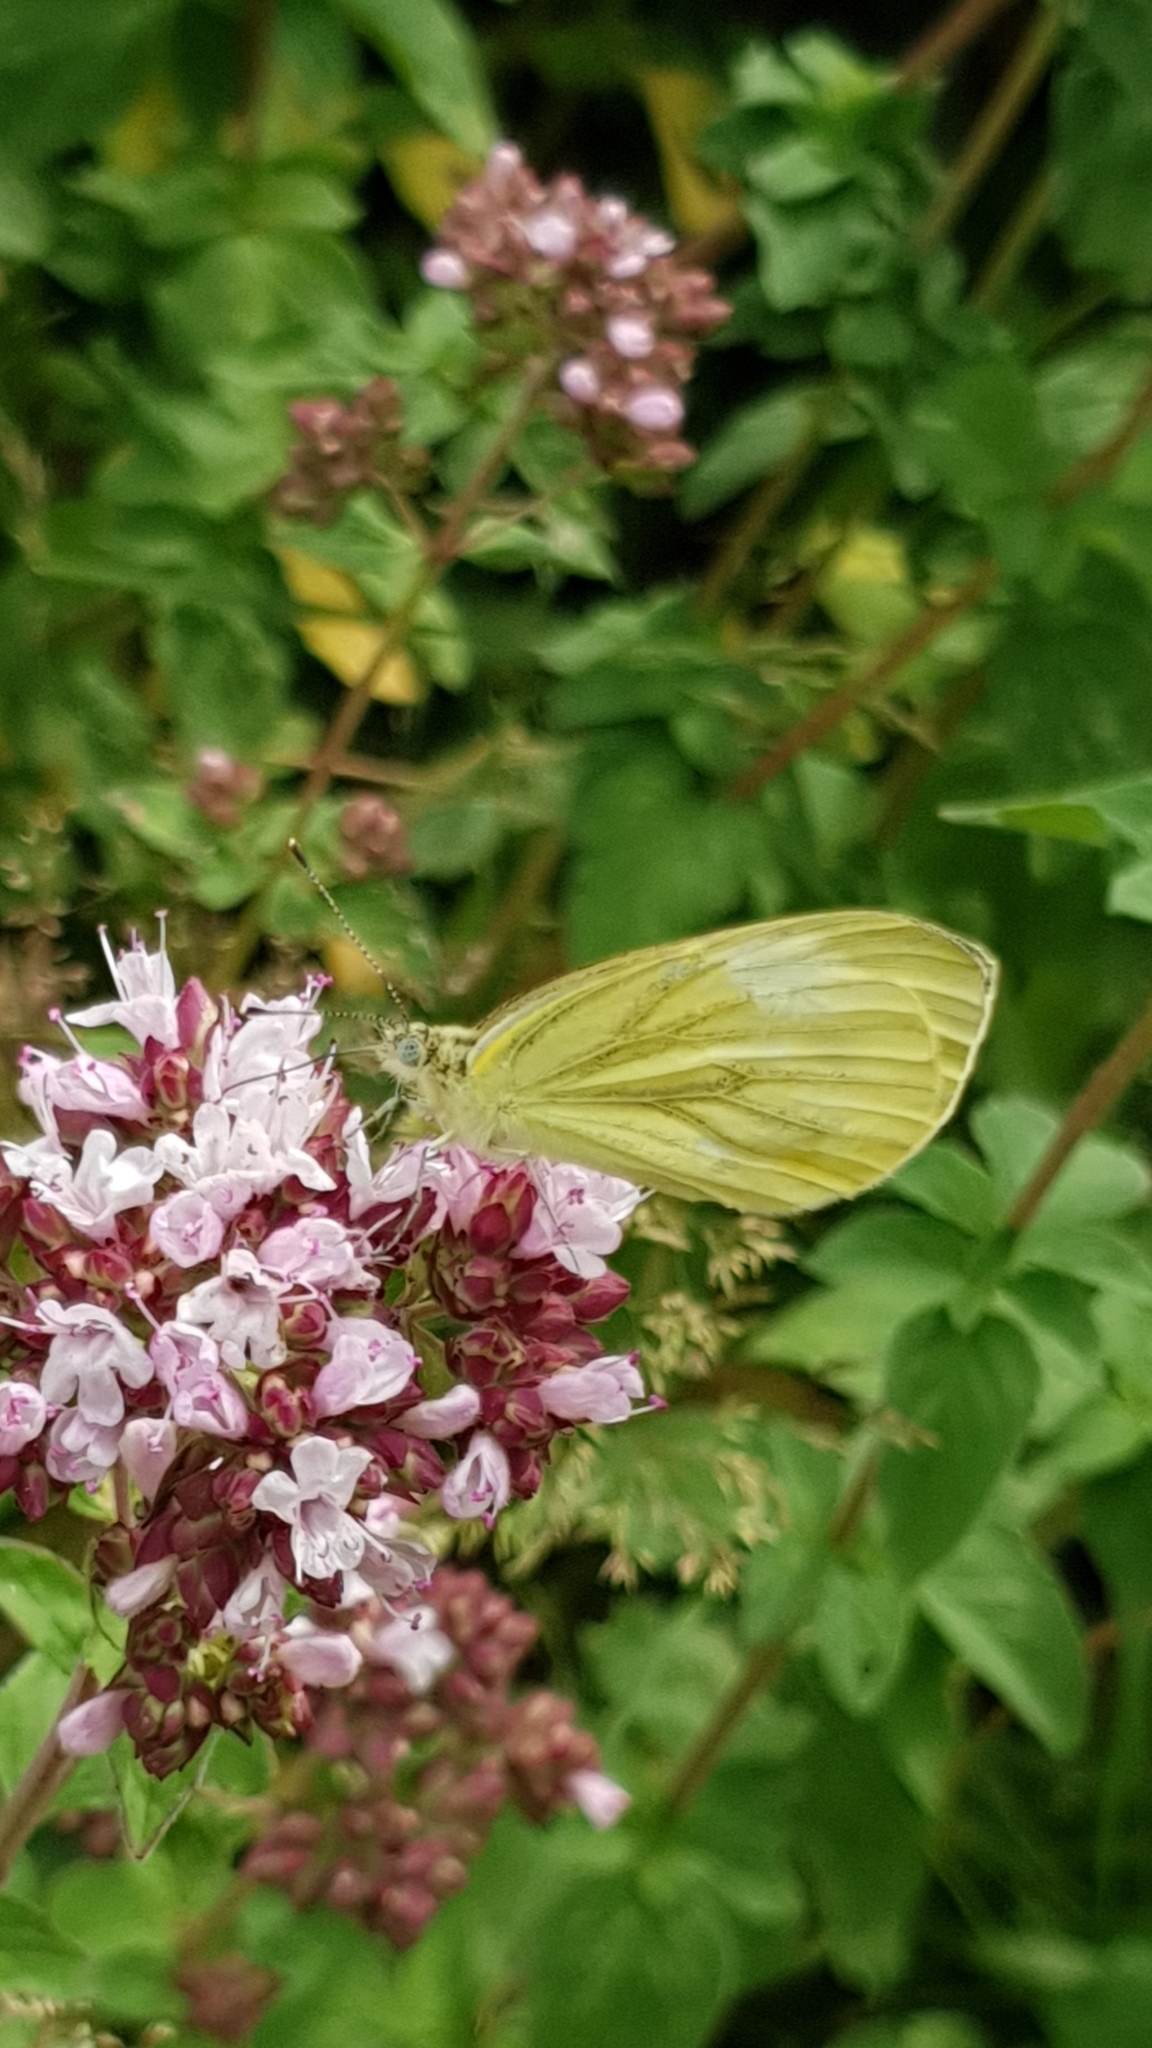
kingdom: Animalia
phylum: Arthropoda
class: Insecta
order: Lepidoptera
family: Pieridae
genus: Pieris
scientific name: Pieris napi
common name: Green-veined white
